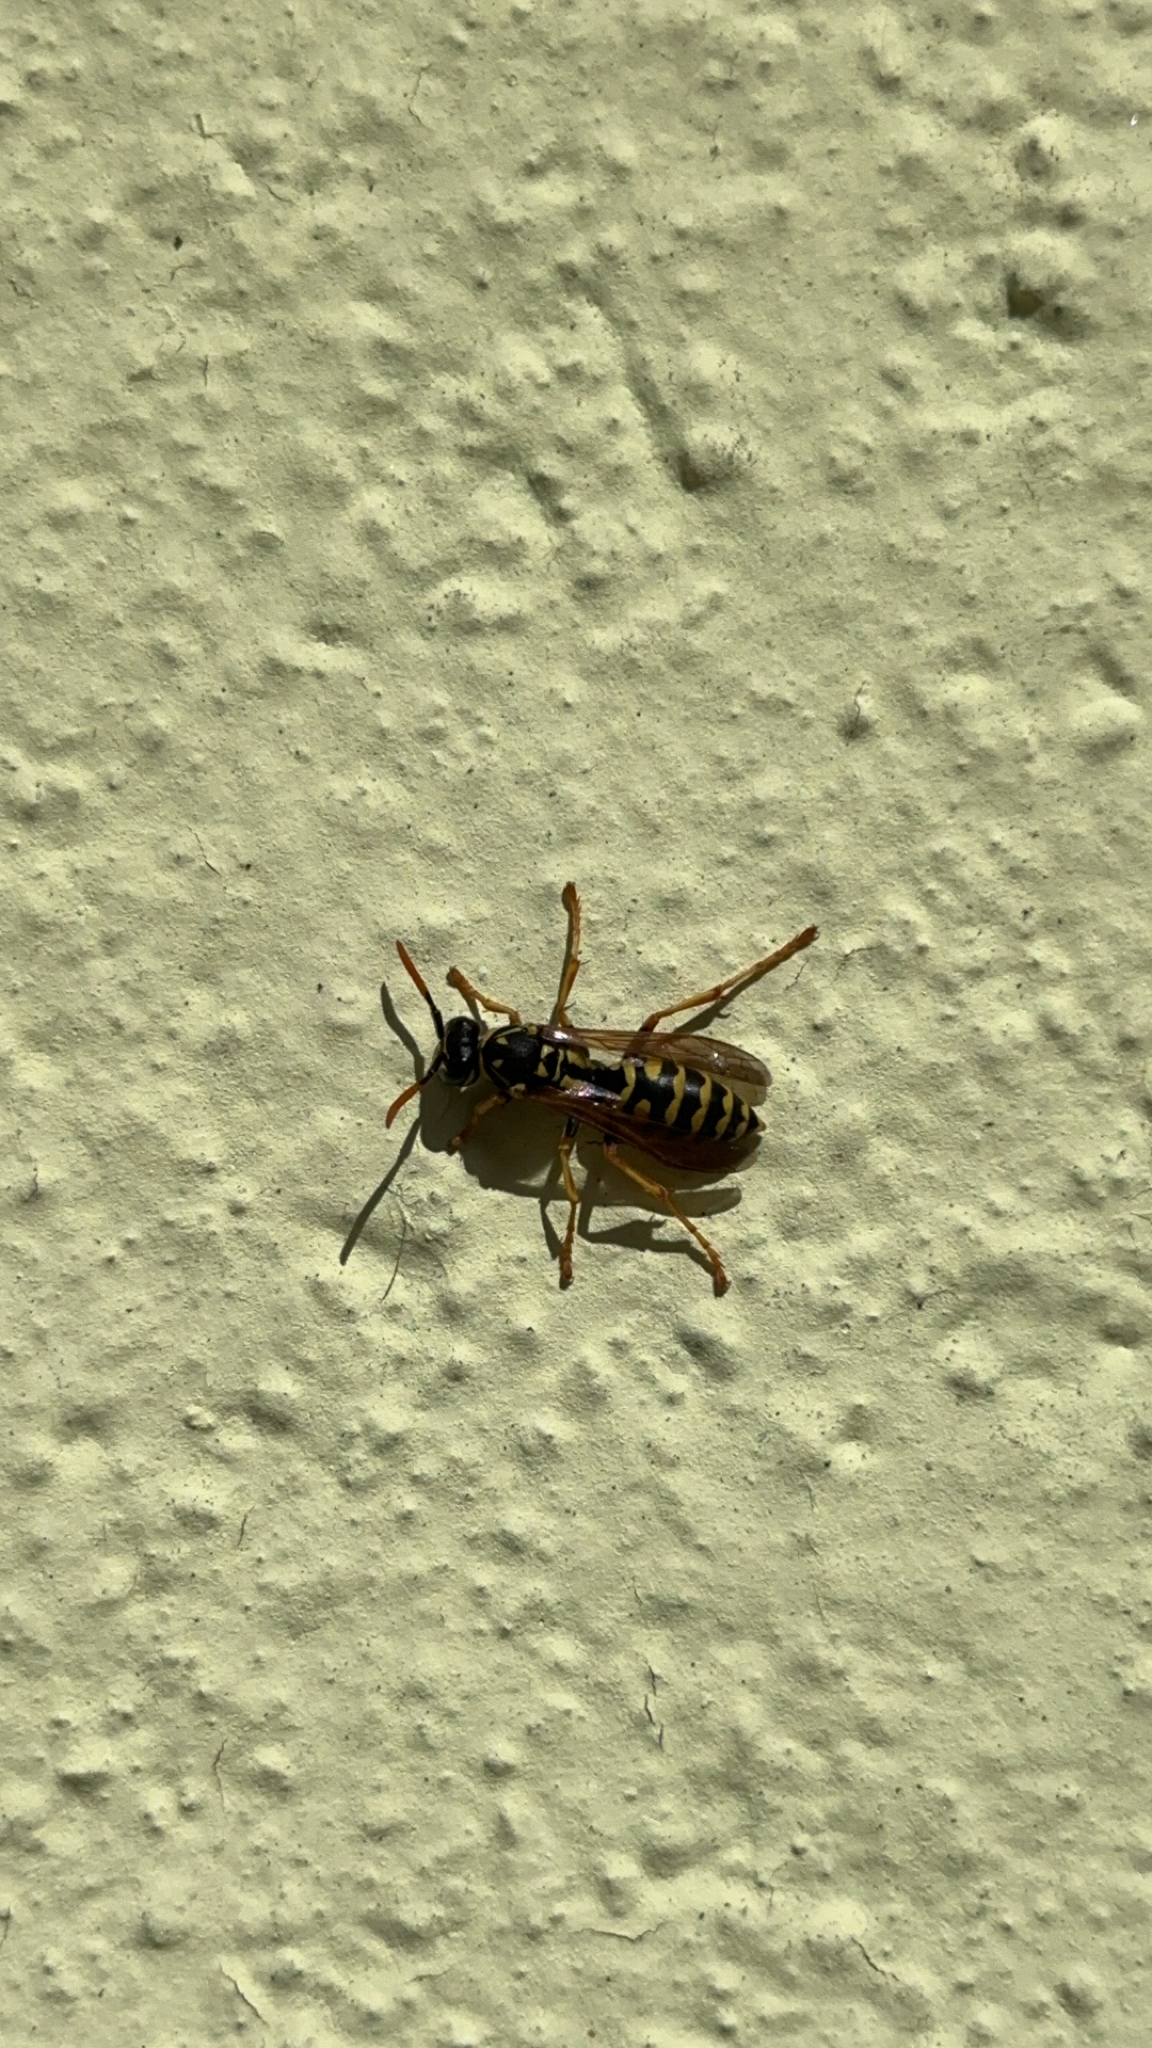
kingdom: Animalia
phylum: Arthropoda
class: Insecta
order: Hymenoptera
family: Eumenidae
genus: Polistes
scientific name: Polistes dominula
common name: Paper wasp
